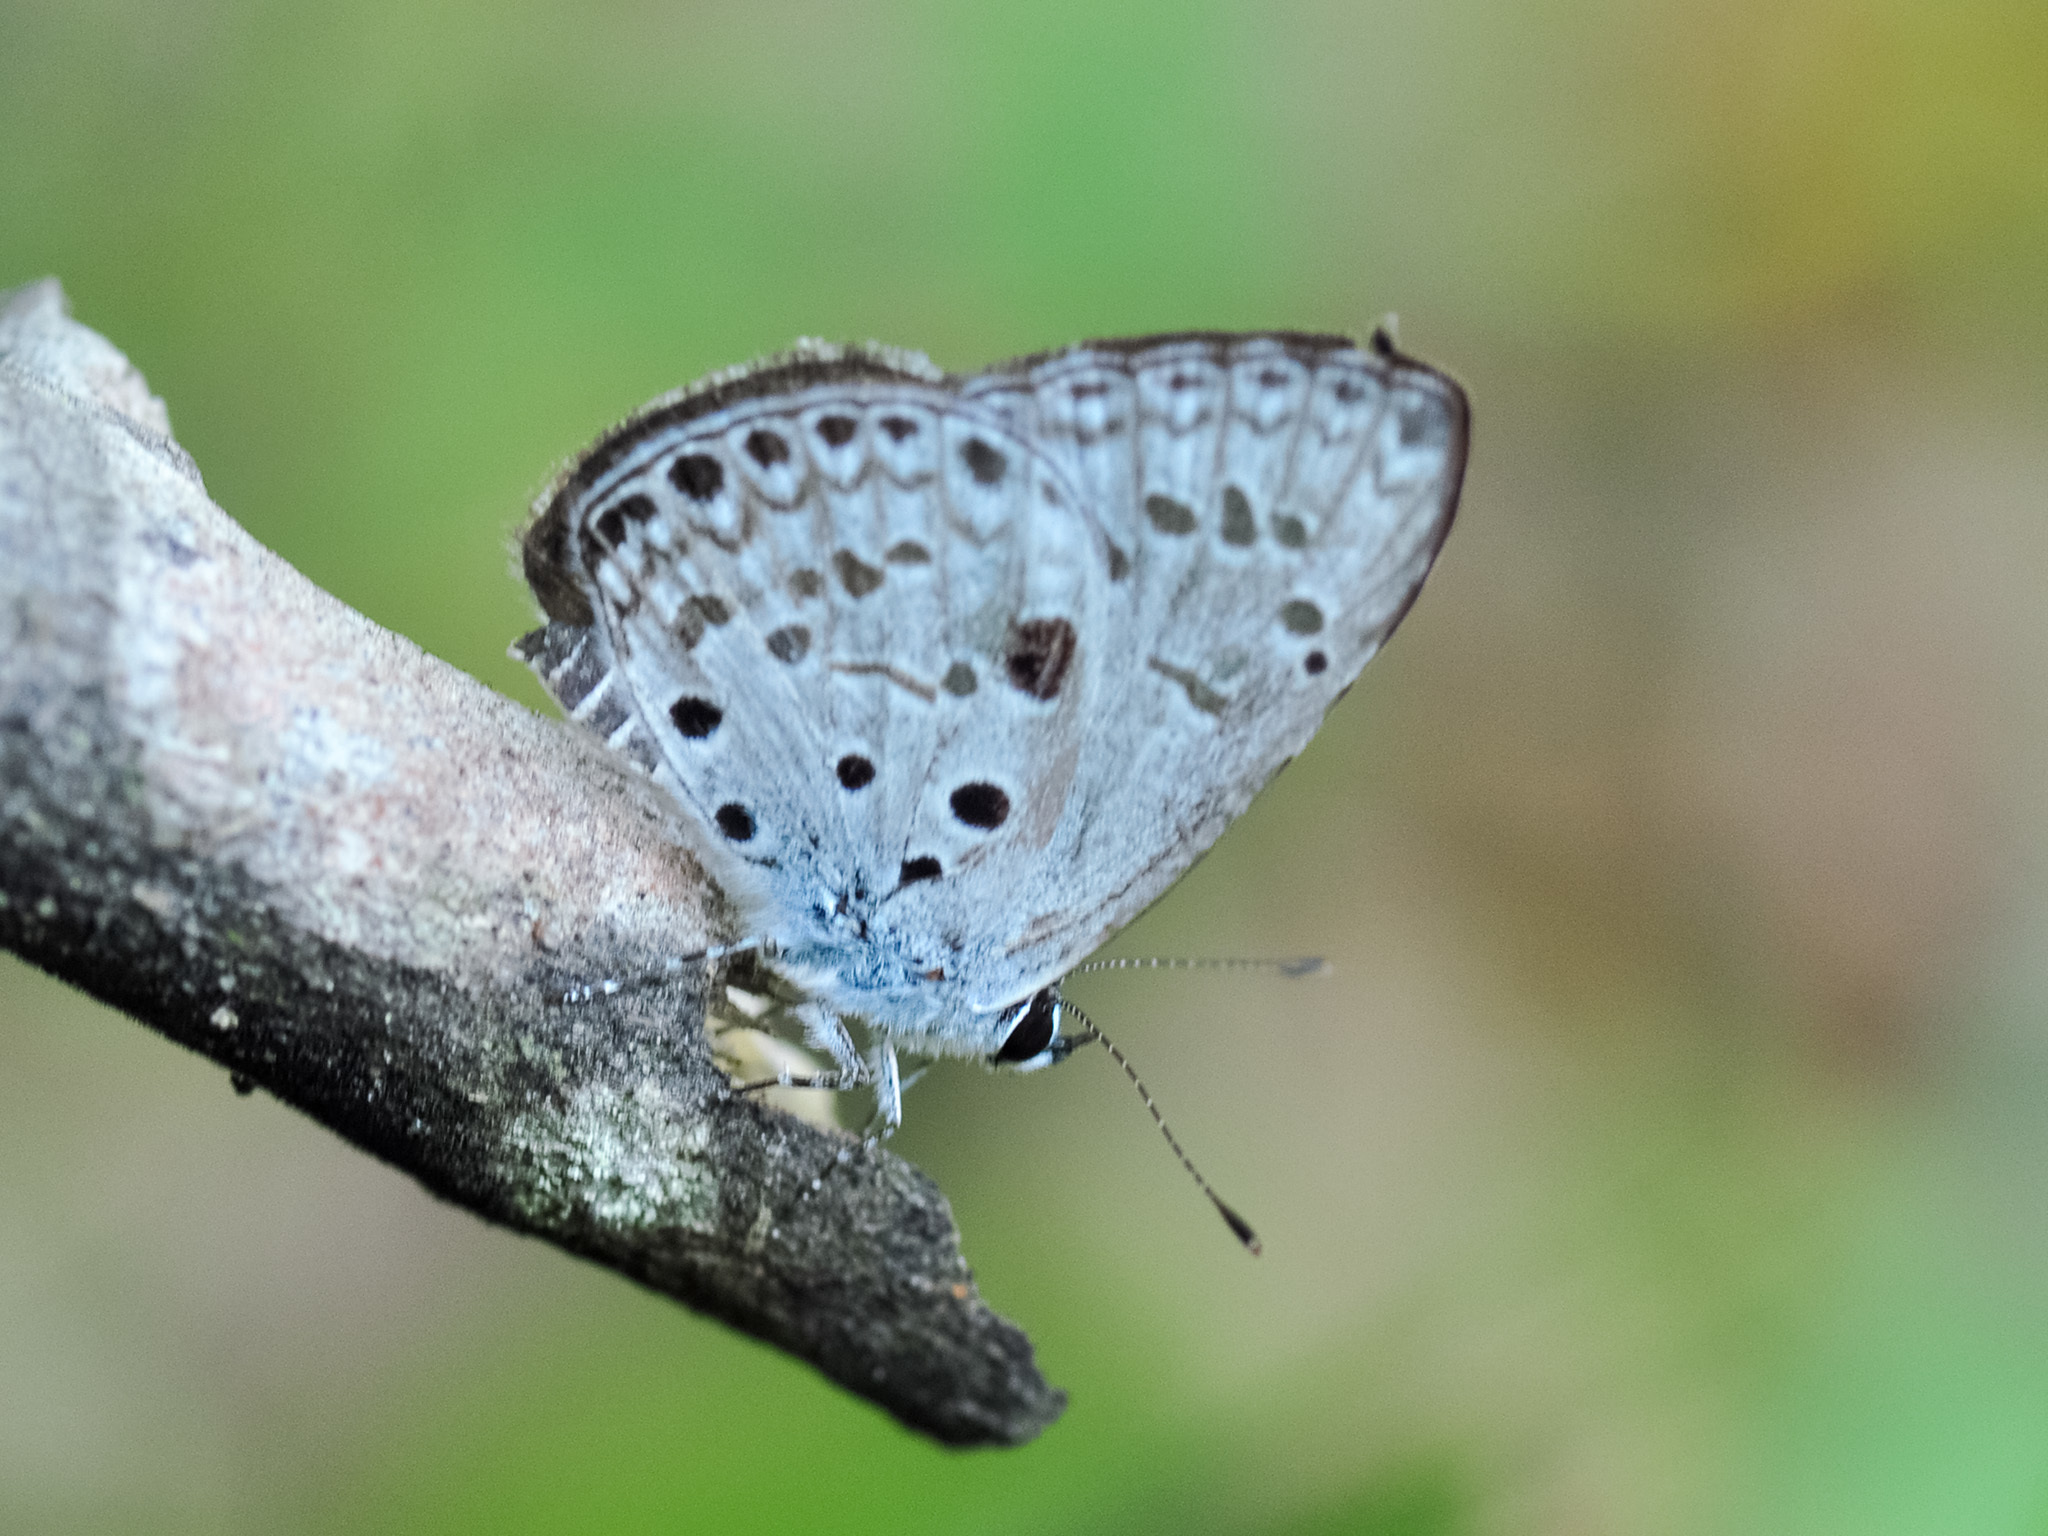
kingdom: Animalia
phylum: Arthropoda
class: Insecta
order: Lepidoptera
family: Lycaenidae
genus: Acytolepis
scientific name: Acytolepis puspa
